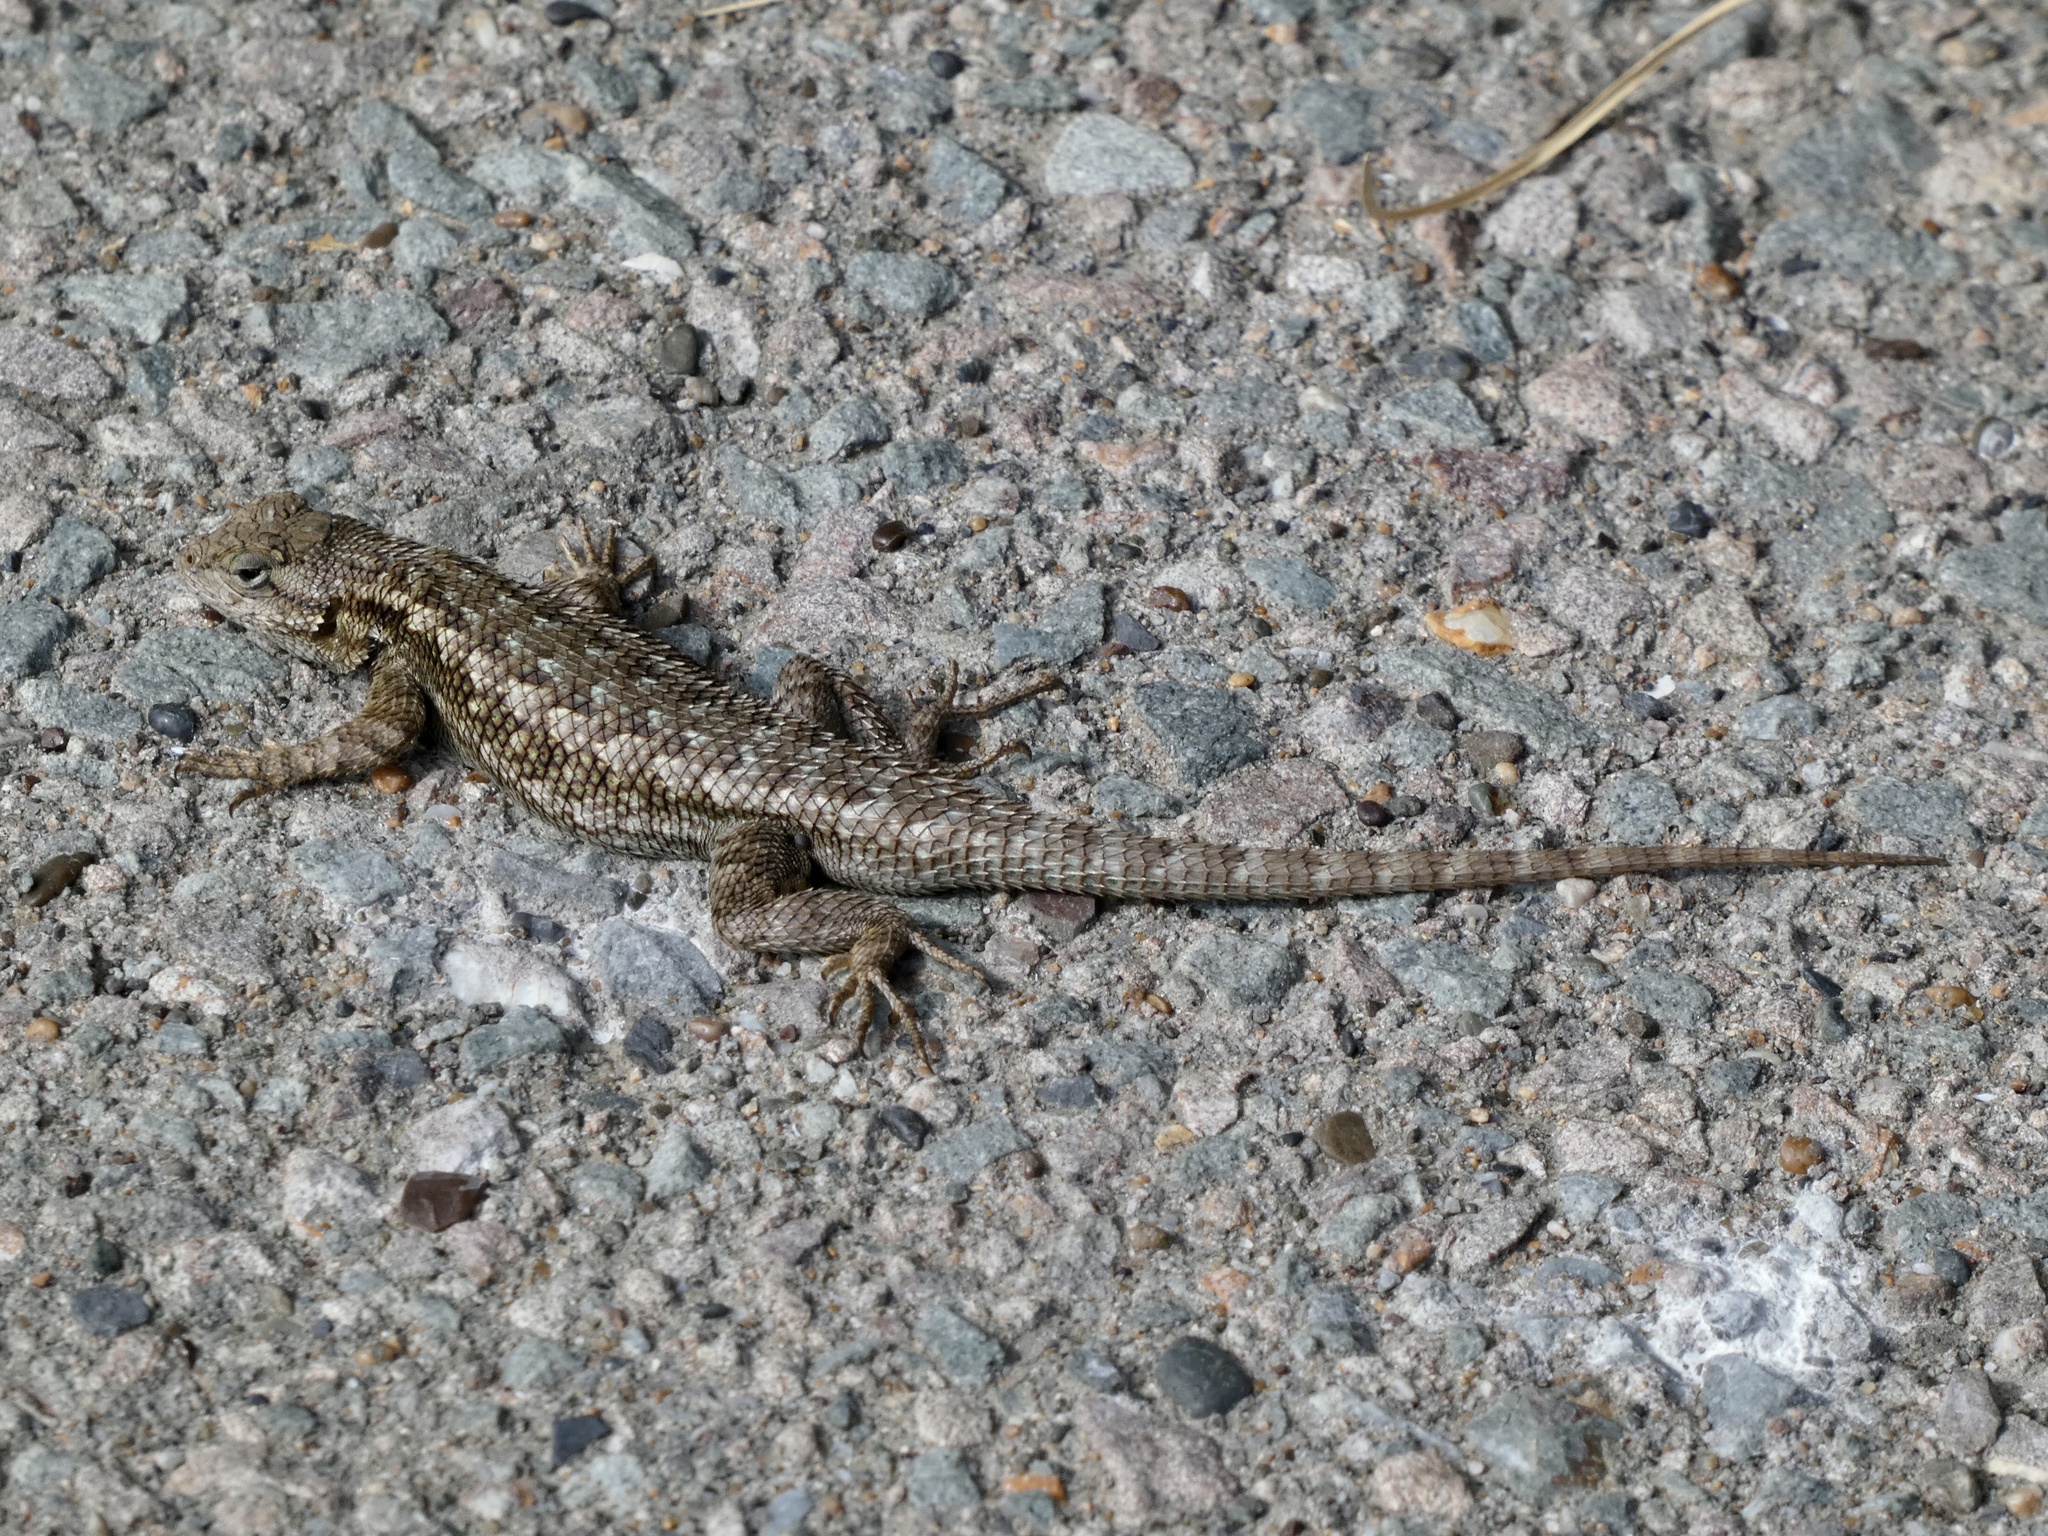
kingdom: Animalia
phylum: Chordata
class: Squamata
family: Phrynosomatidae
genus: Sceloporus
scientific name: Sceloporus occidentalis
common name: Western fence lizard
